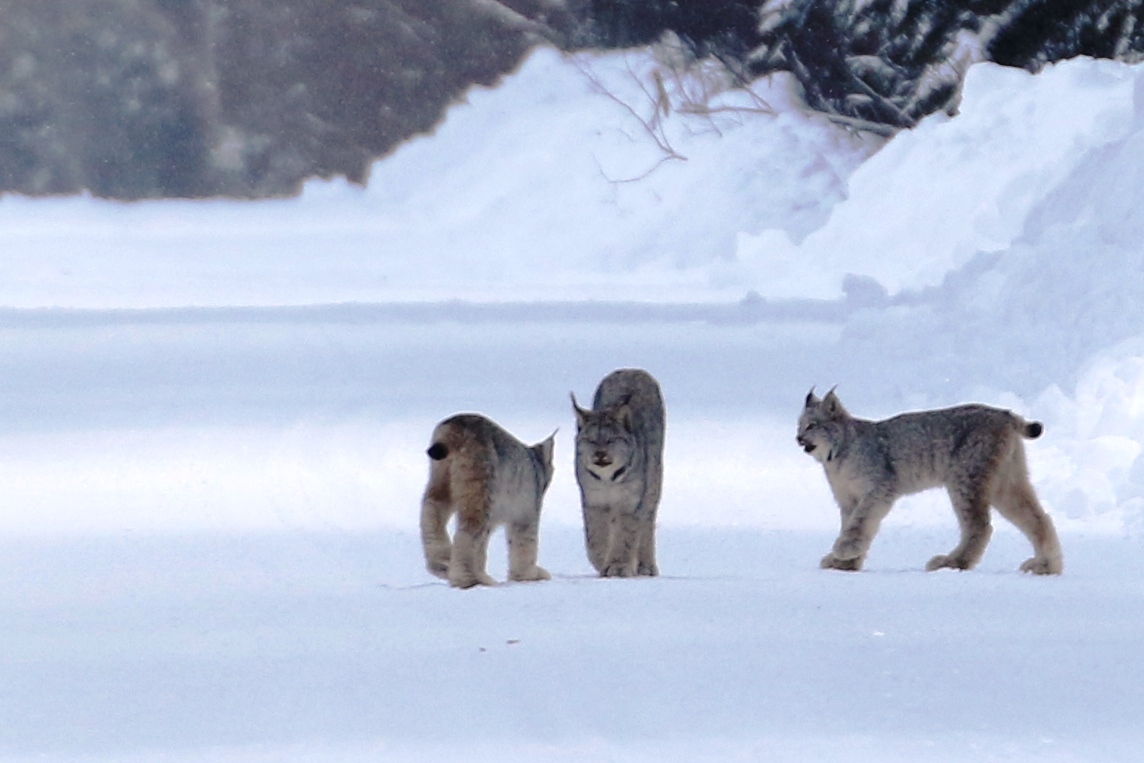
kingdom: Animalia
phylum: Chordata
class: Mammalia
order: Carnivora
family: Felidae
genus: Lynx
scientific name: Lynx canadensis
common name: Canadian lynx
